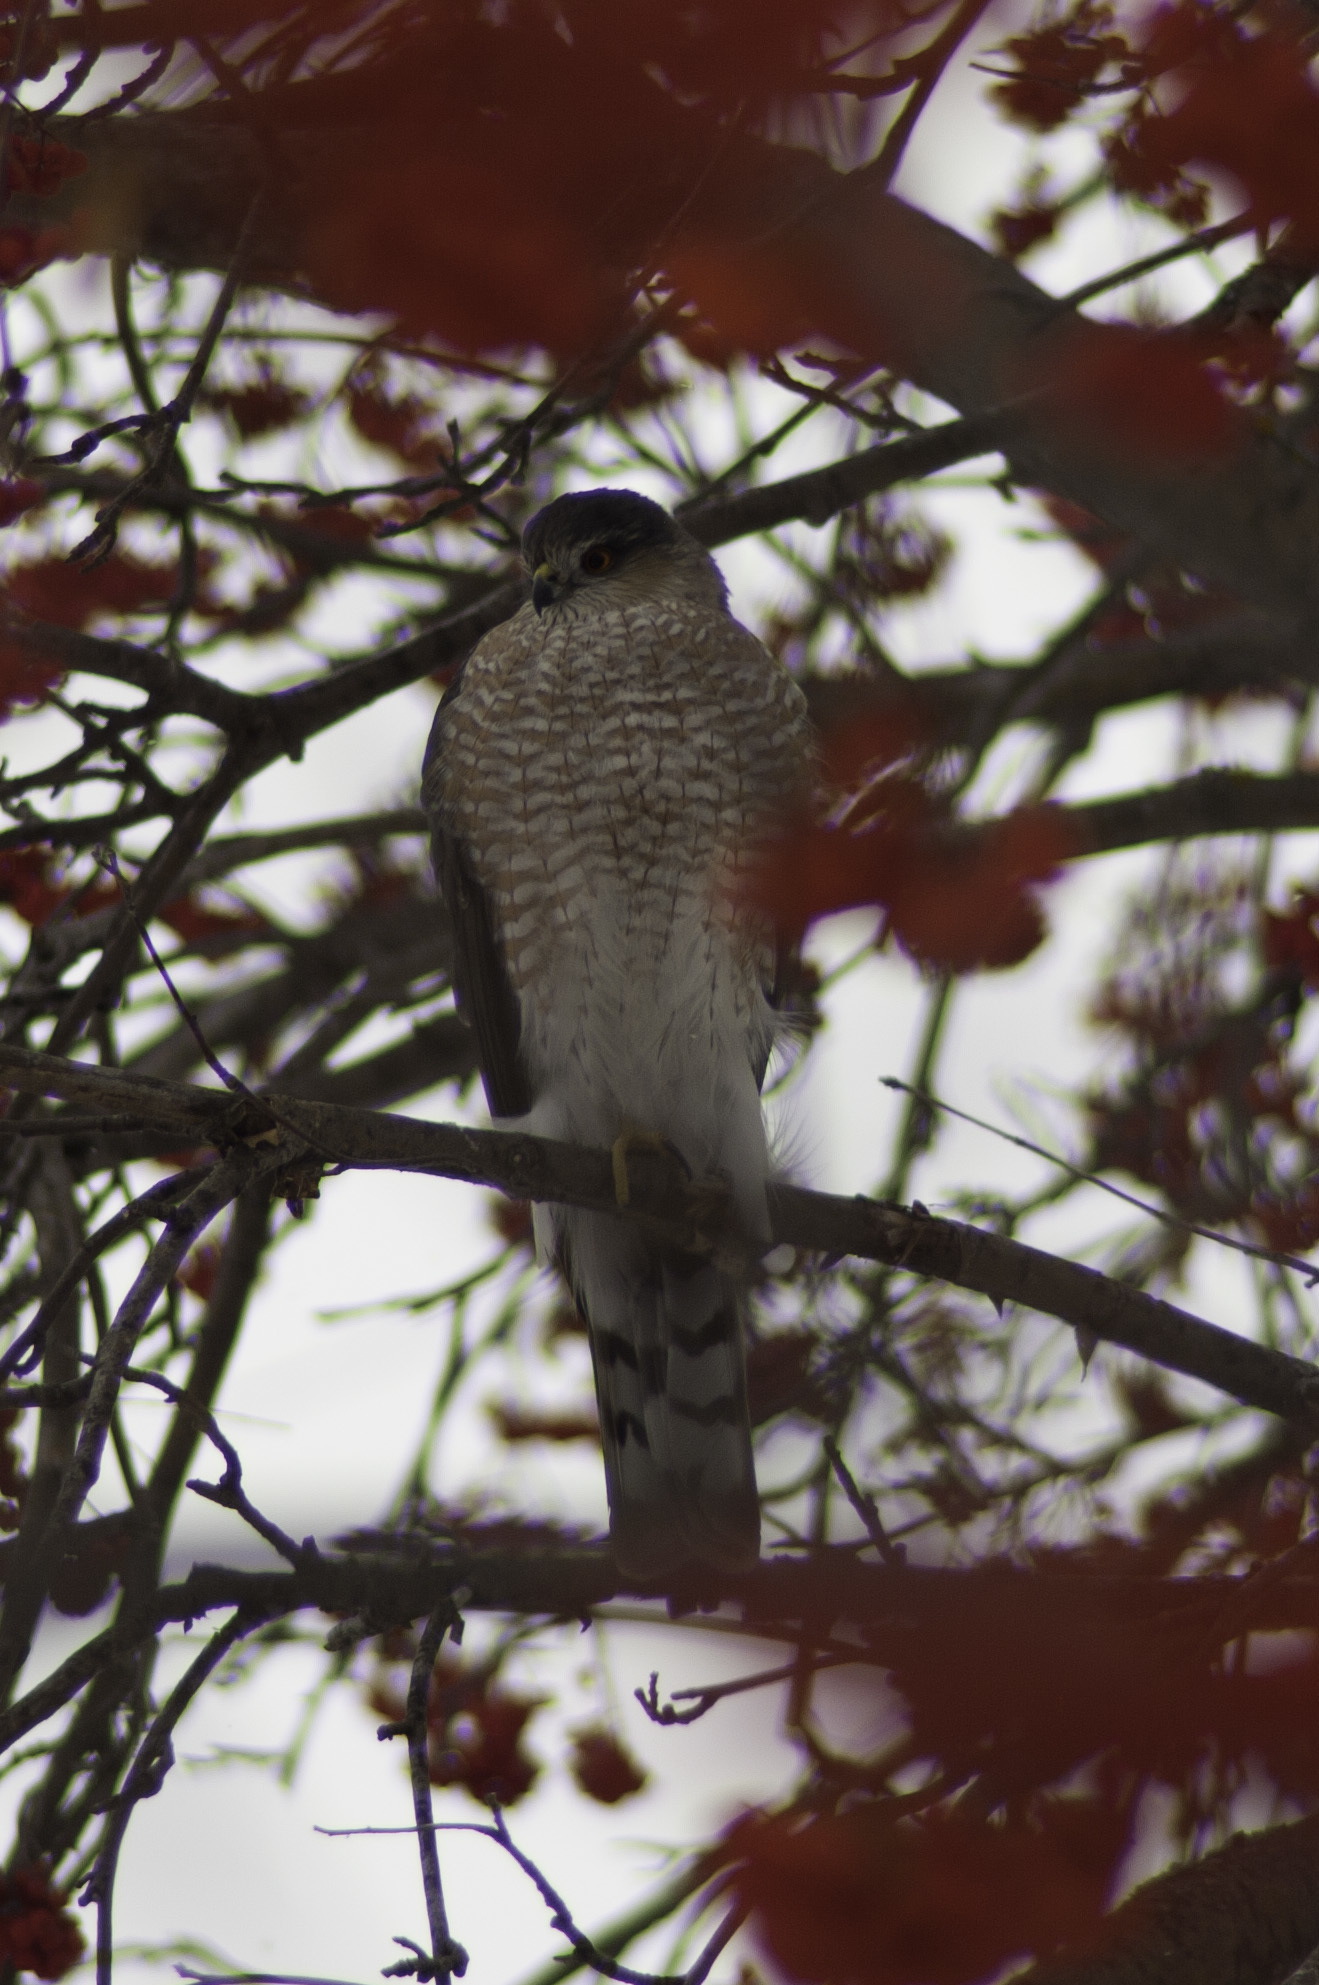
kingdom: Animalia
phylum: Chordata
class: Aves
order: Accipitriformes
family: Accipitridae
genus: Accipiter
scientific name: Accipiter striatus
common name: Sharp-shinned hawk
